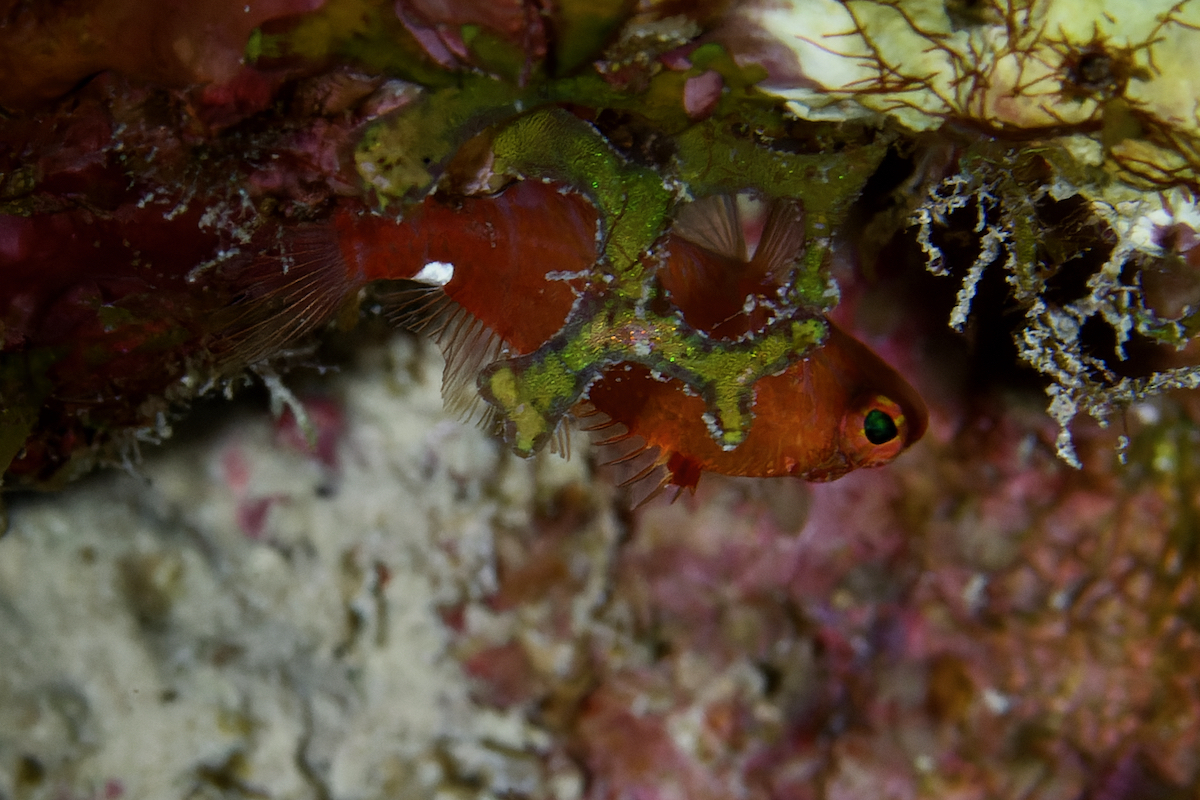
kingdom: Animalia
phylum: Chordata
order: Perciformes
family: Serranidae
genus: Plectranthias
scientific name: Plectranthias winniensis
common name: Redblotch perchlet
